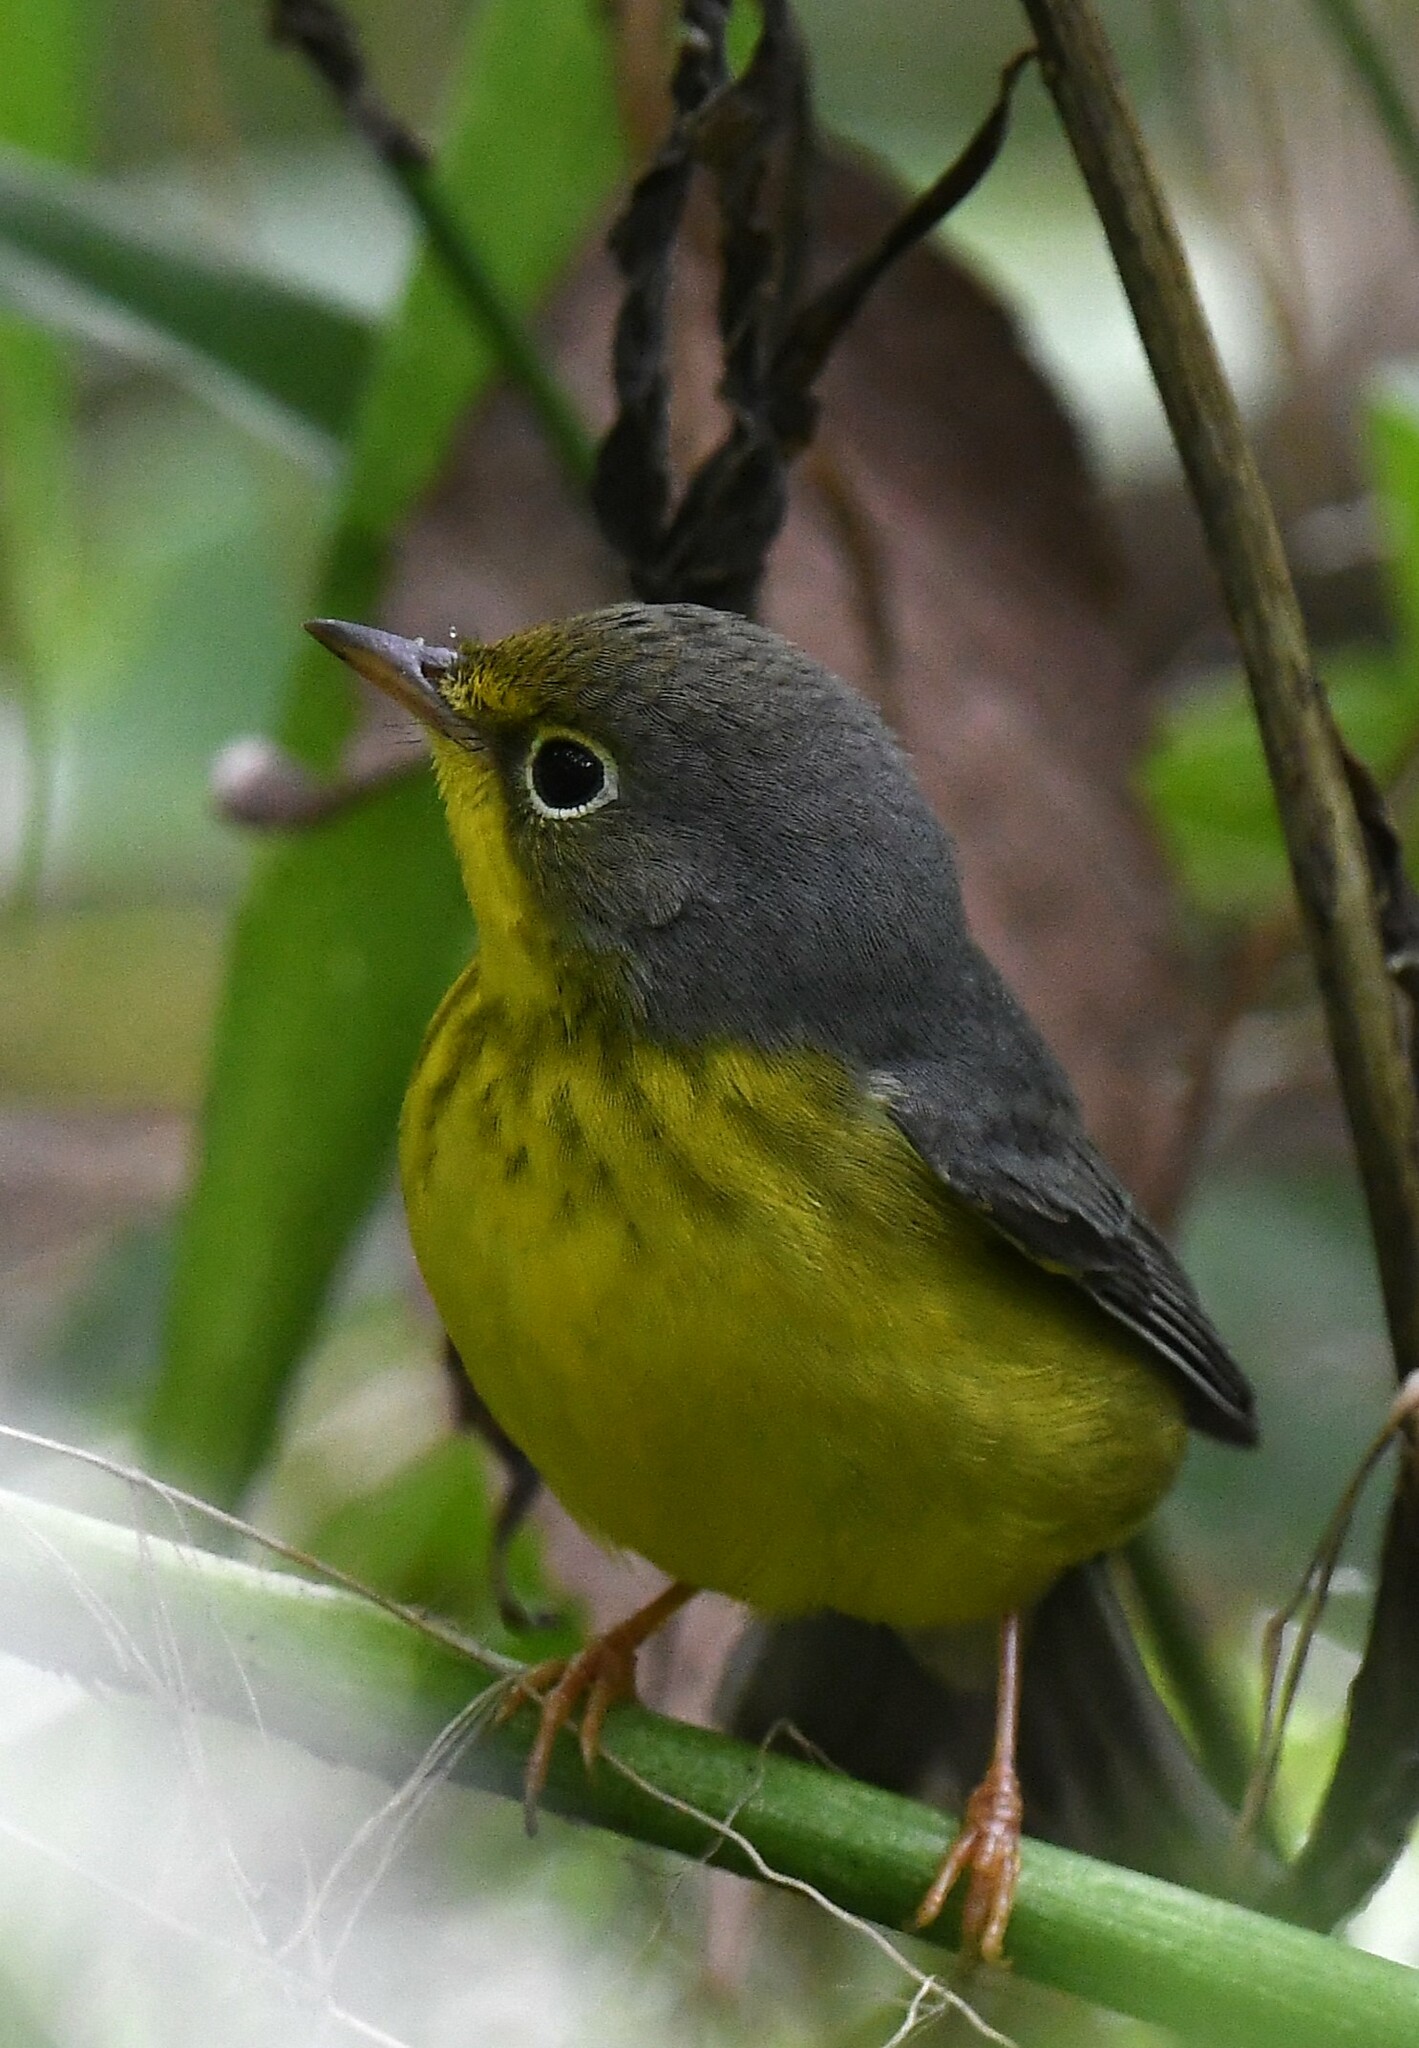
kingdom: Animalia
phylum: Chordata
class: Aves
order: Passeriformes
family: Parulidae
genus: Cardellina
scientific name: Cardellina canadensis
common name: Canada warbler
